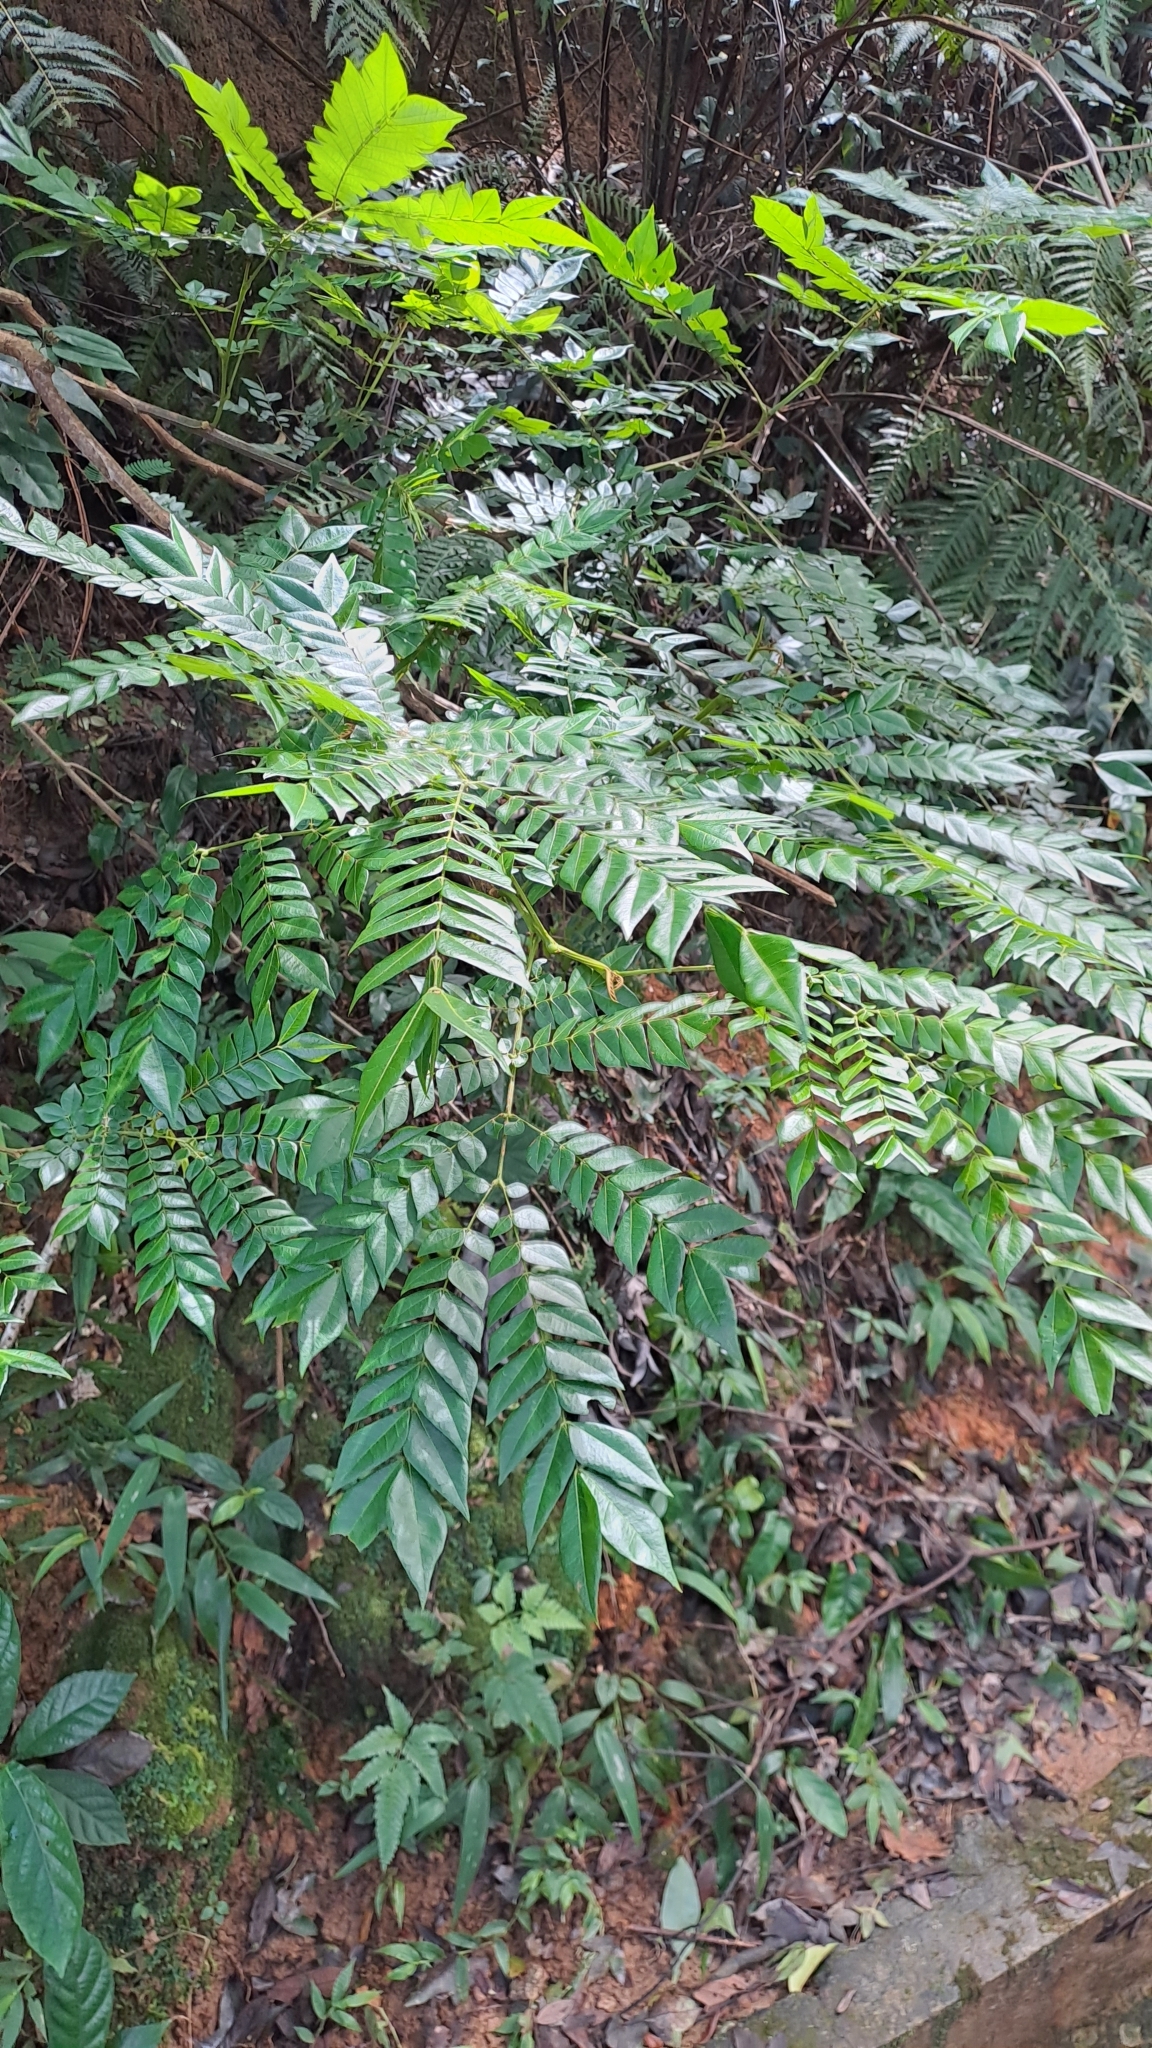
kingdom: Plantae
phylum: Tracheophyta
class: Magnoliopsida
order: Fabales
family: Fabaceae
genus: Archidendron
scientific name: Archidendron clypearia
